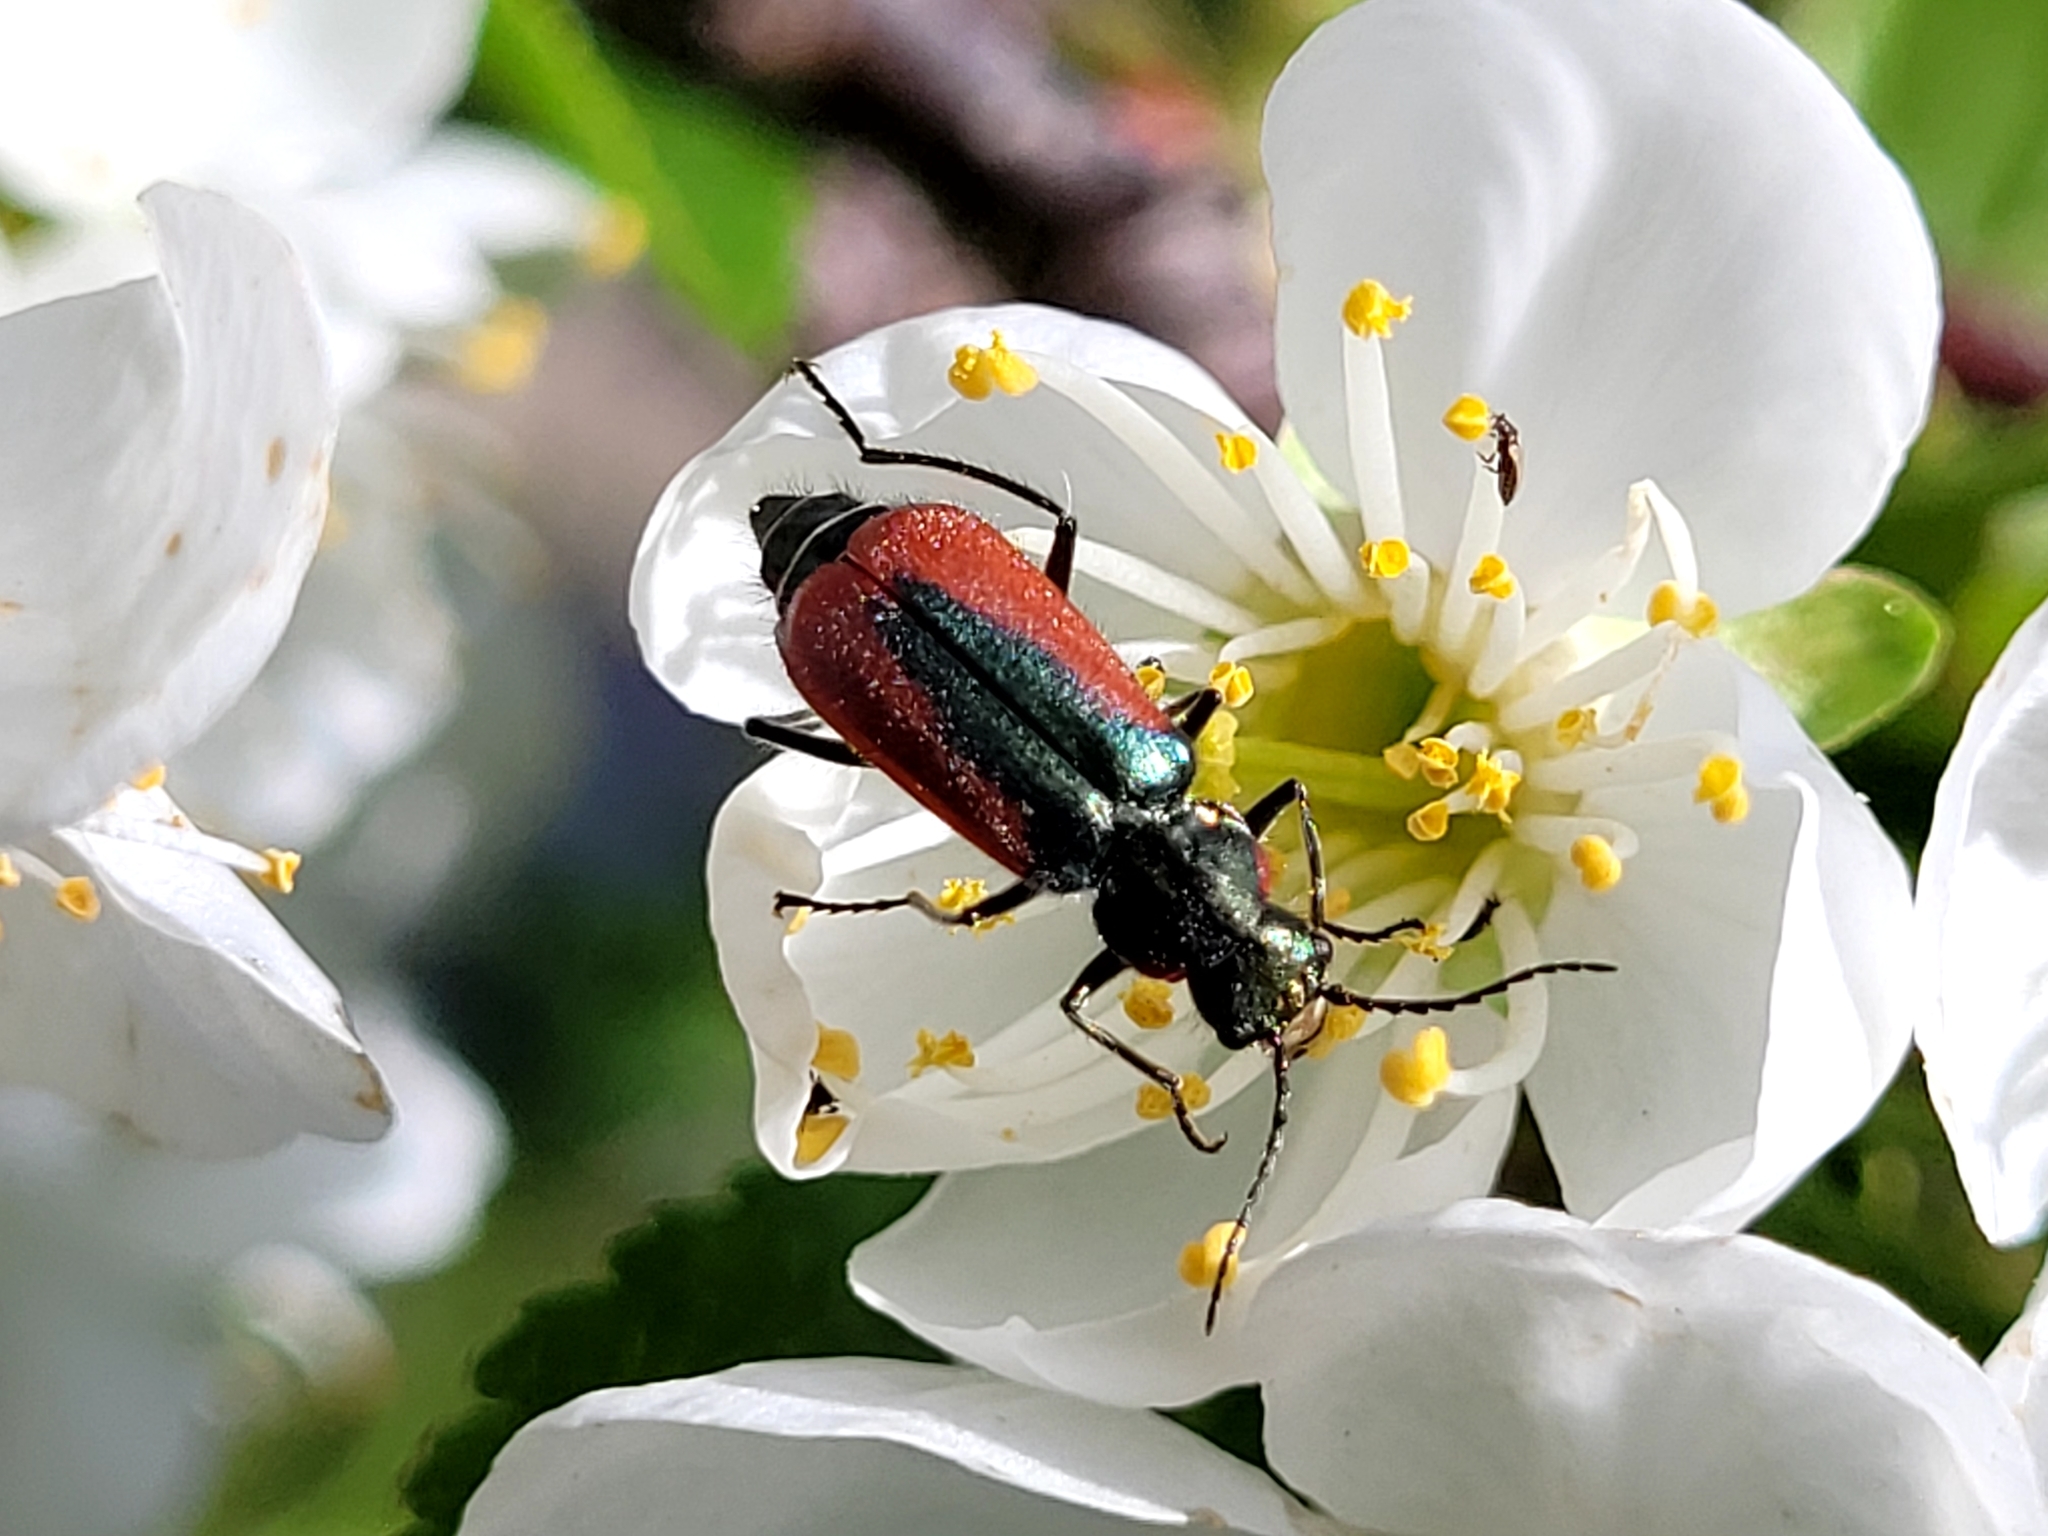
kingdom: Animalia
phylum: Arthropoda
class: Insecta
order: Coleoptera
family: Melyridae
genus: Malachius
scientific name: Malachius aeneus
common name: Scarlet malachite beetle
